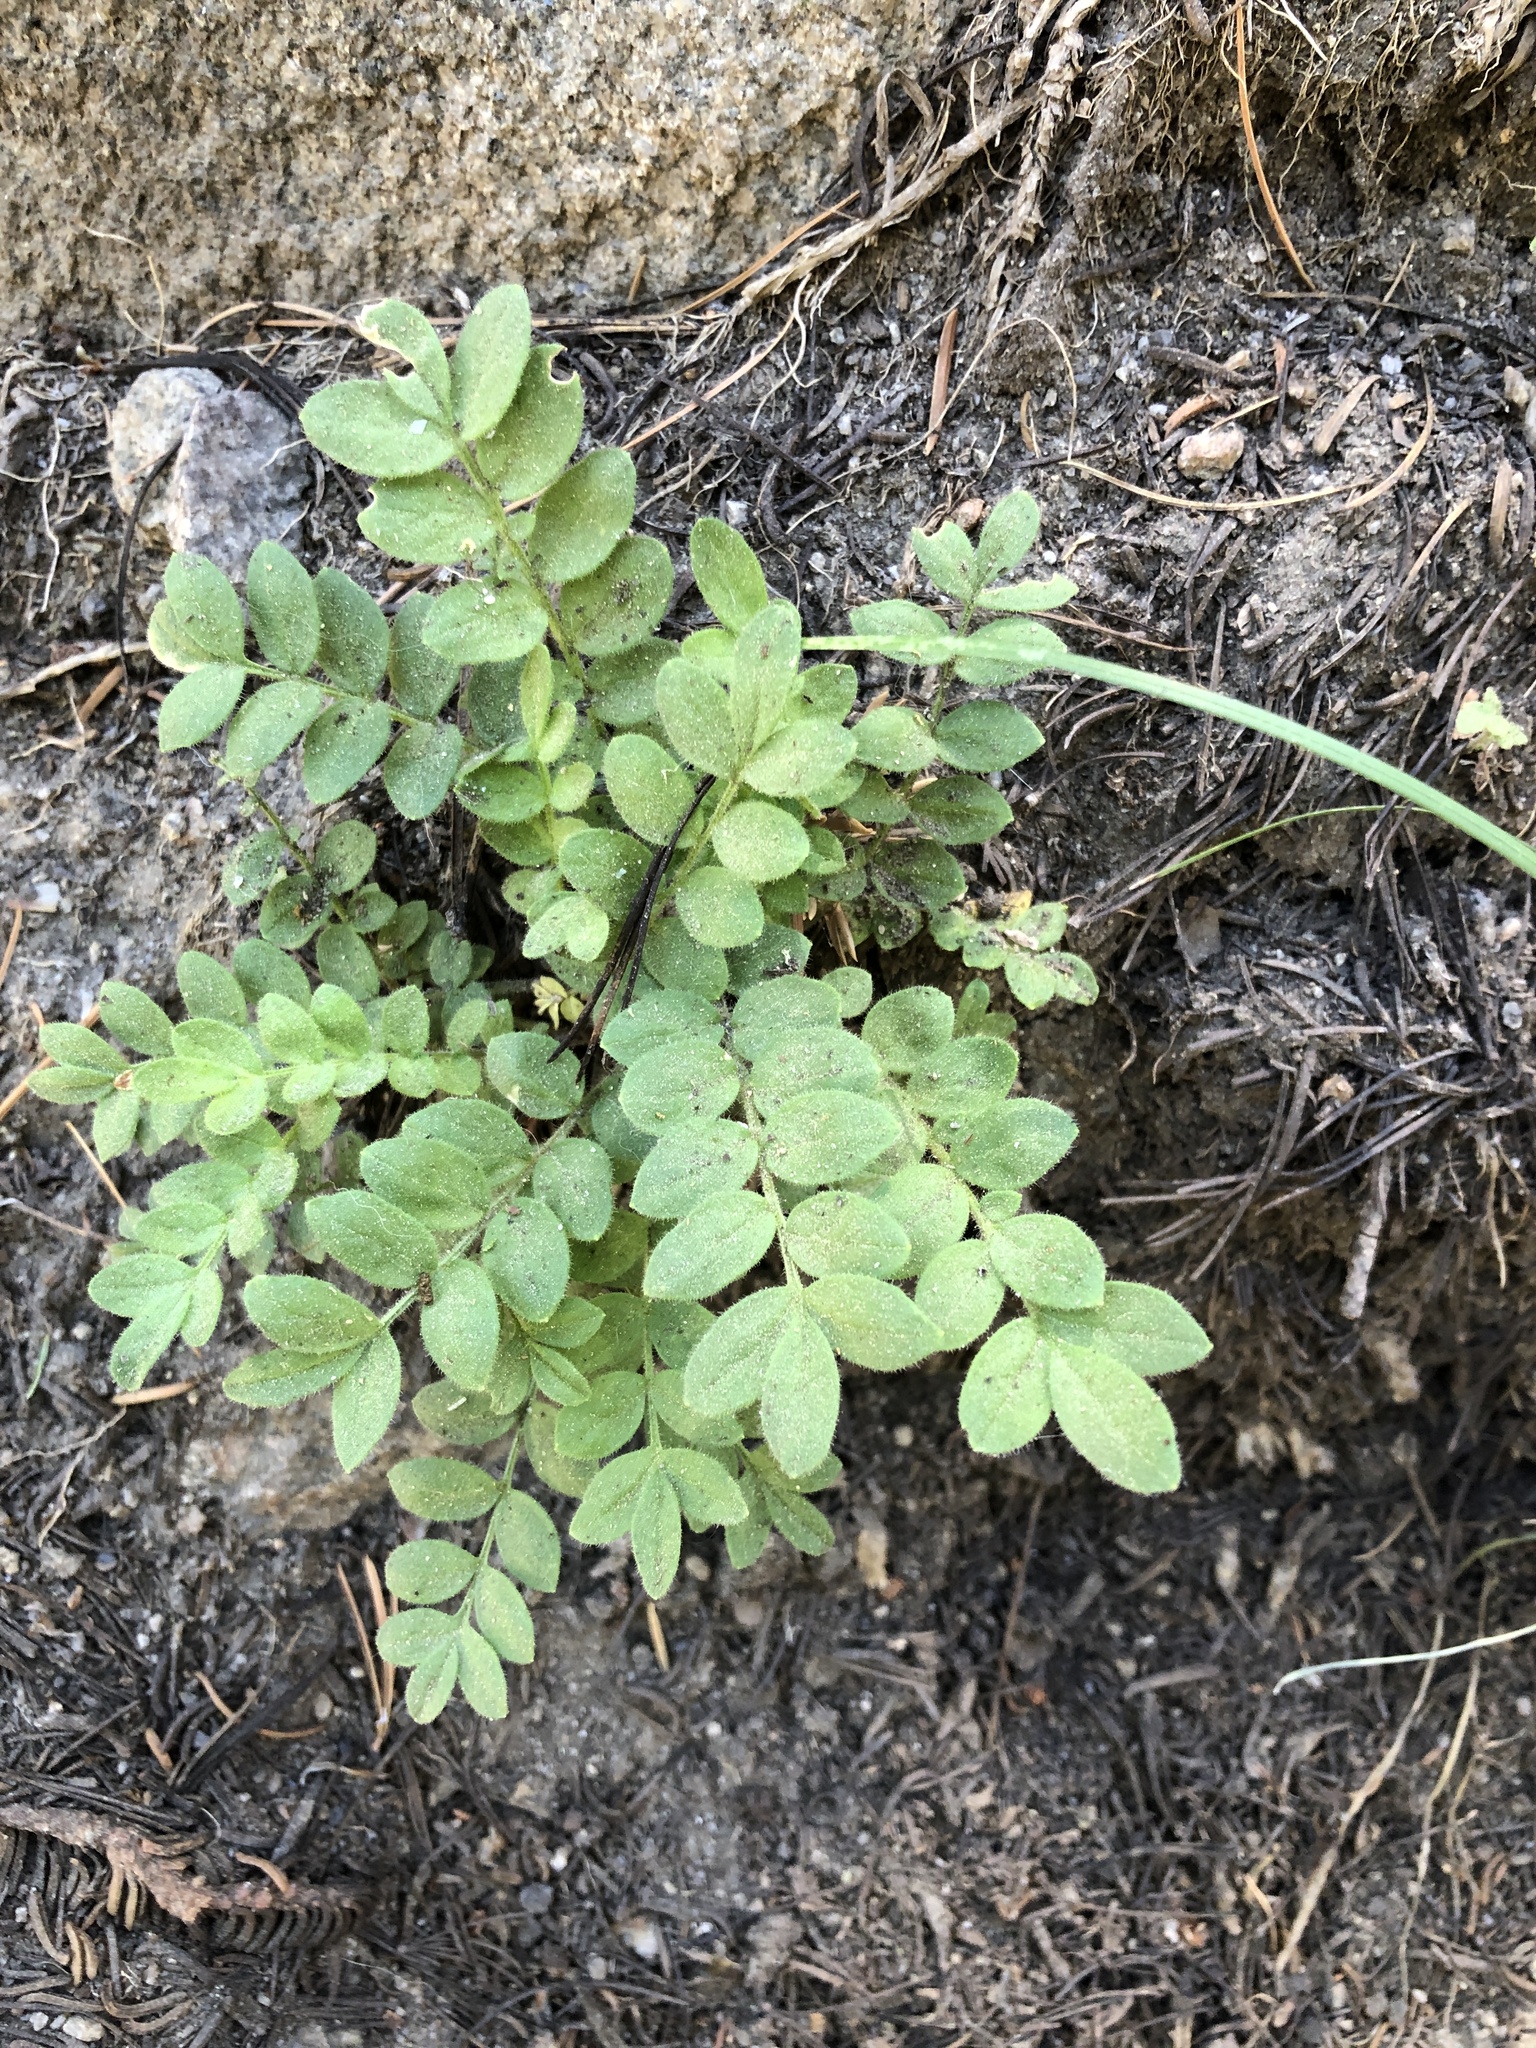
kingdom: Plantae
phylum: Tracheophyta
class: Magnoliopsida
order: Ericales
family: Polemoniaceae
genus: Polemonium
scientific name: Polemonium californicum
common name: California jacob's ladder
